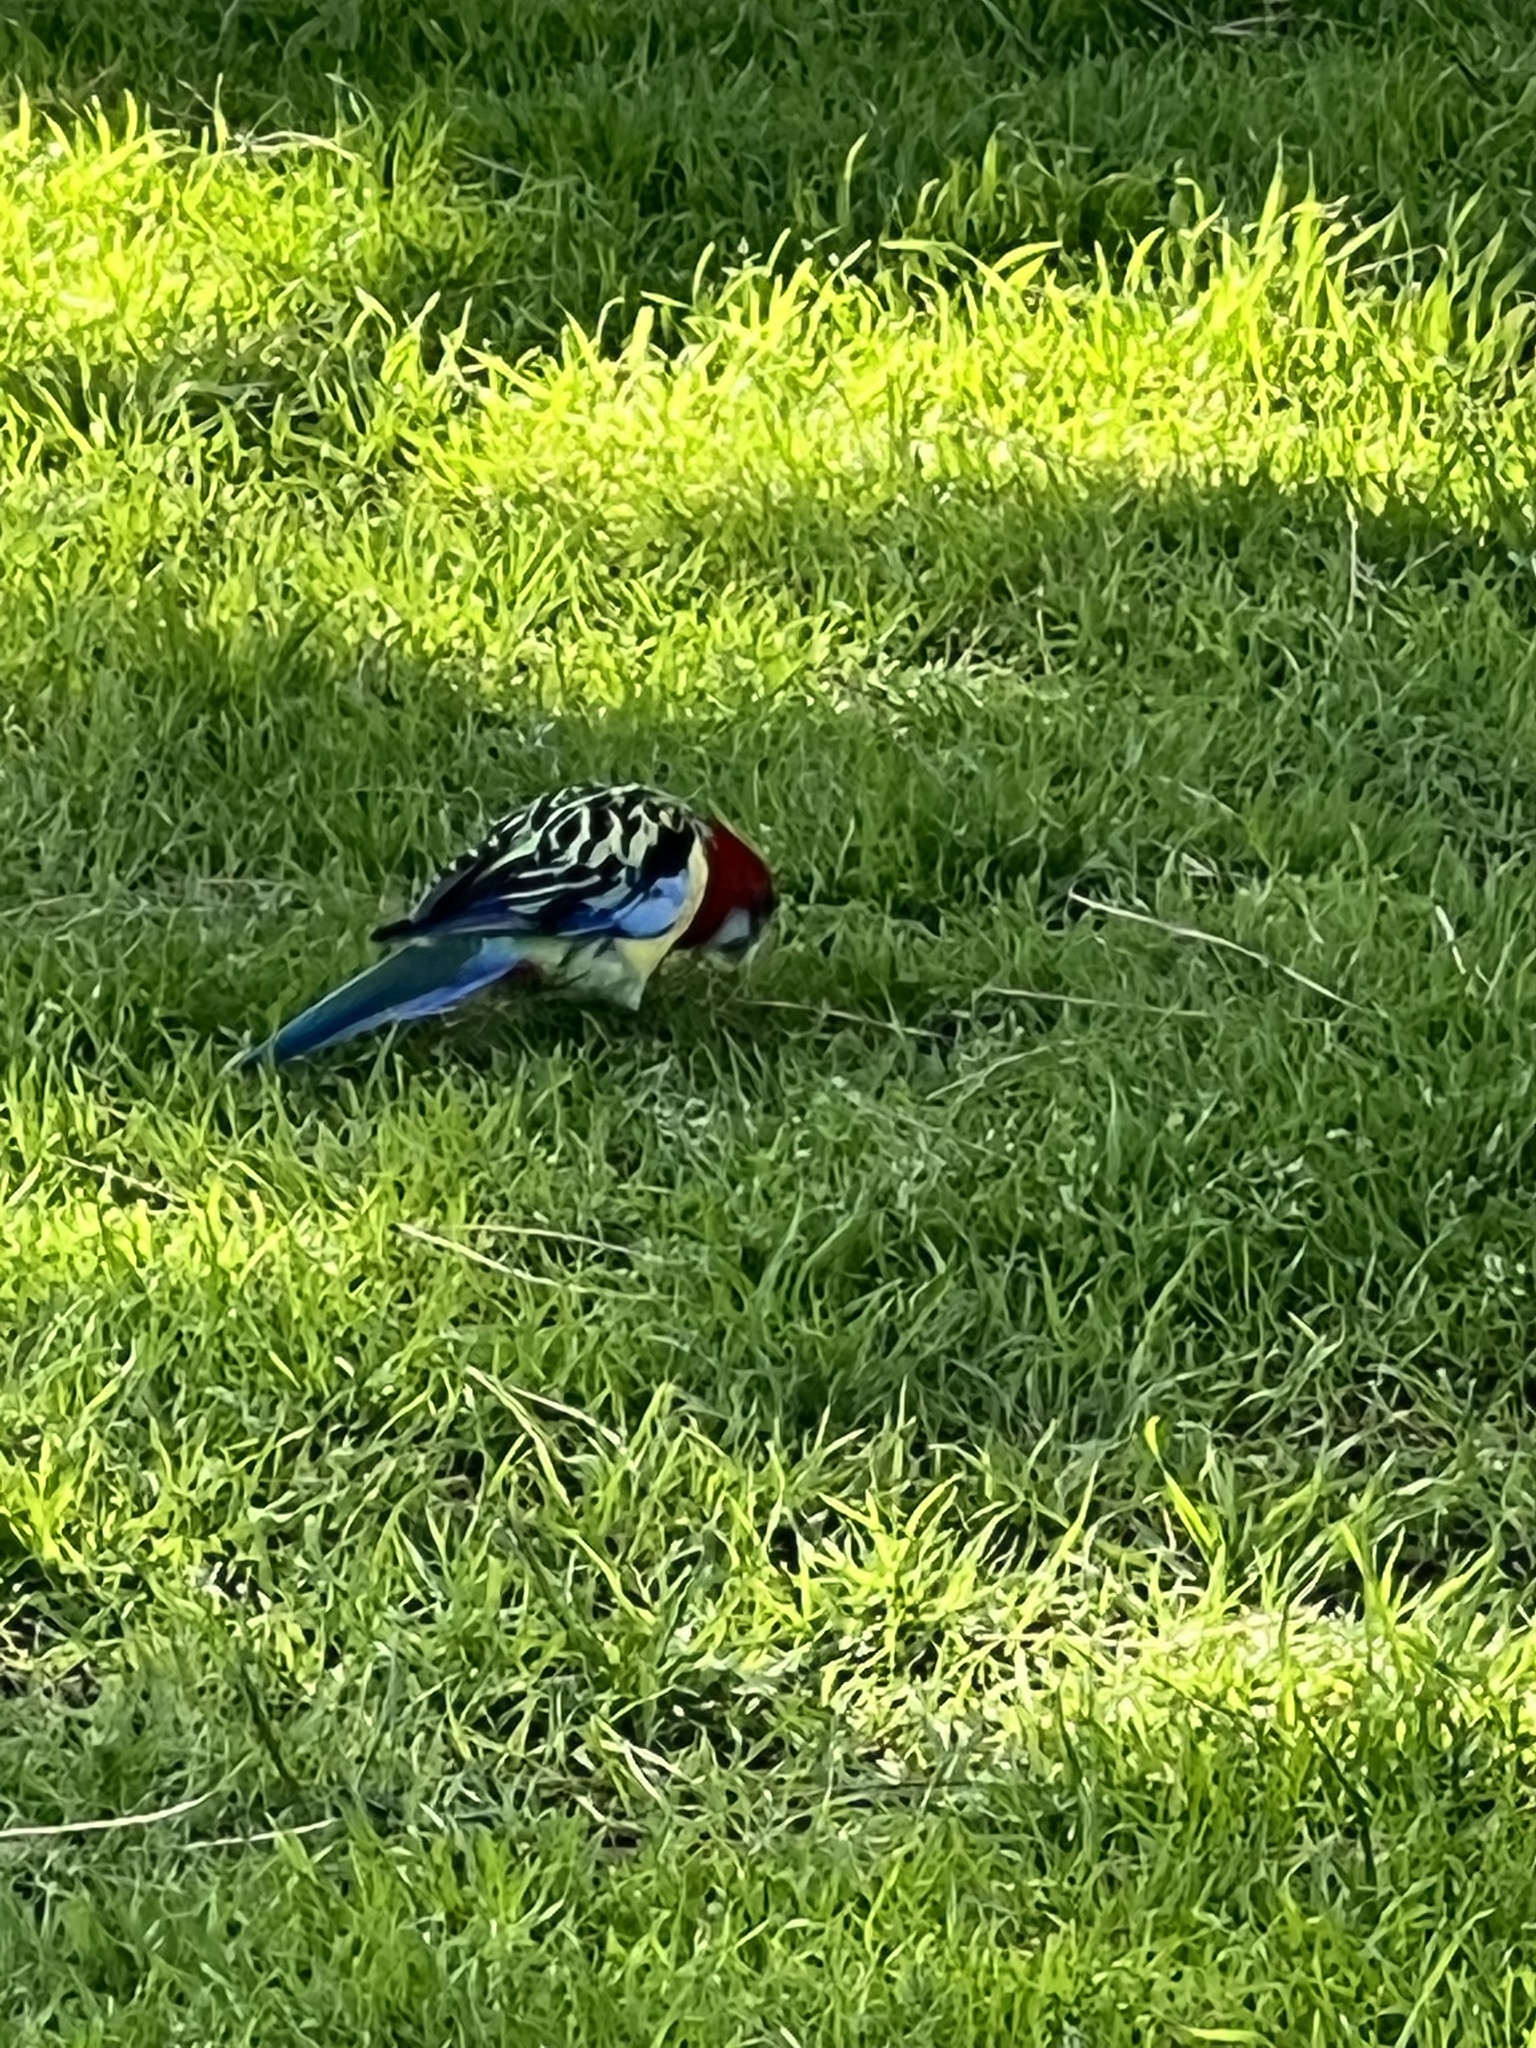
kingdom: Animalia
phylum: Chordata
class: Aves
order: Psittaciformes
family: Psittacidae
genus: Platycercus
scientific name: Platycercus eximius
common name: Eastern rosella
